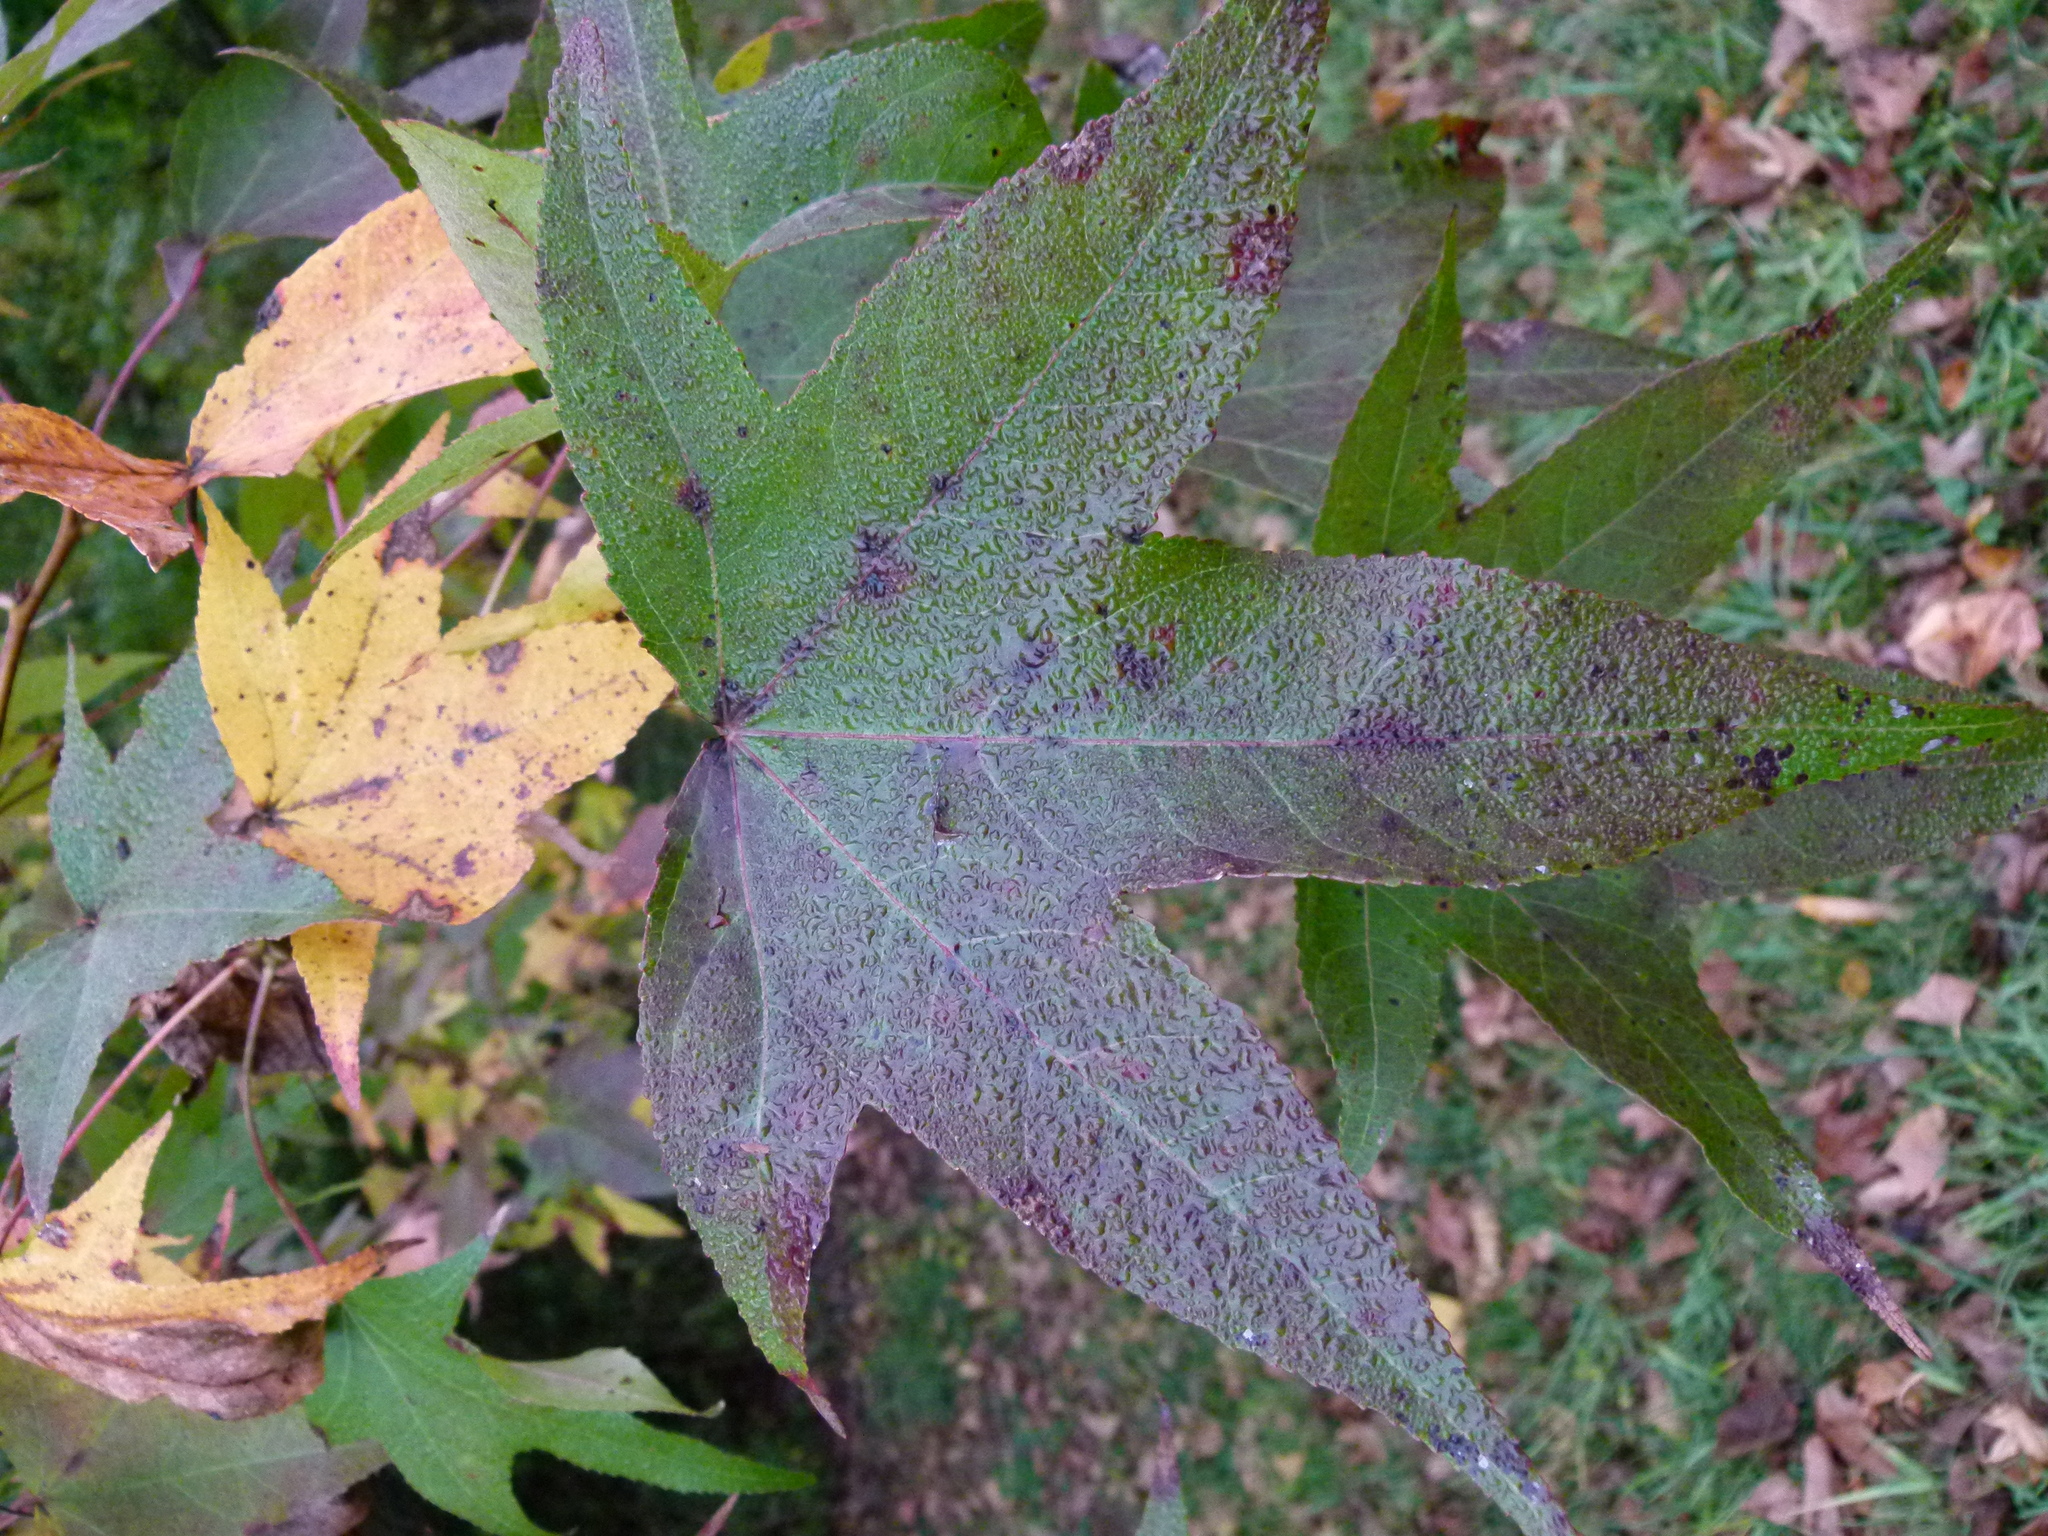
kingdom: Plantae
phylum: Tracheophyta
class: Magnoliopsida
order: Saxifragales
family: Altingiaceae
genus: Liquidambar
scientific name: Liquidambar styraciflua
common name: Sweet gum
